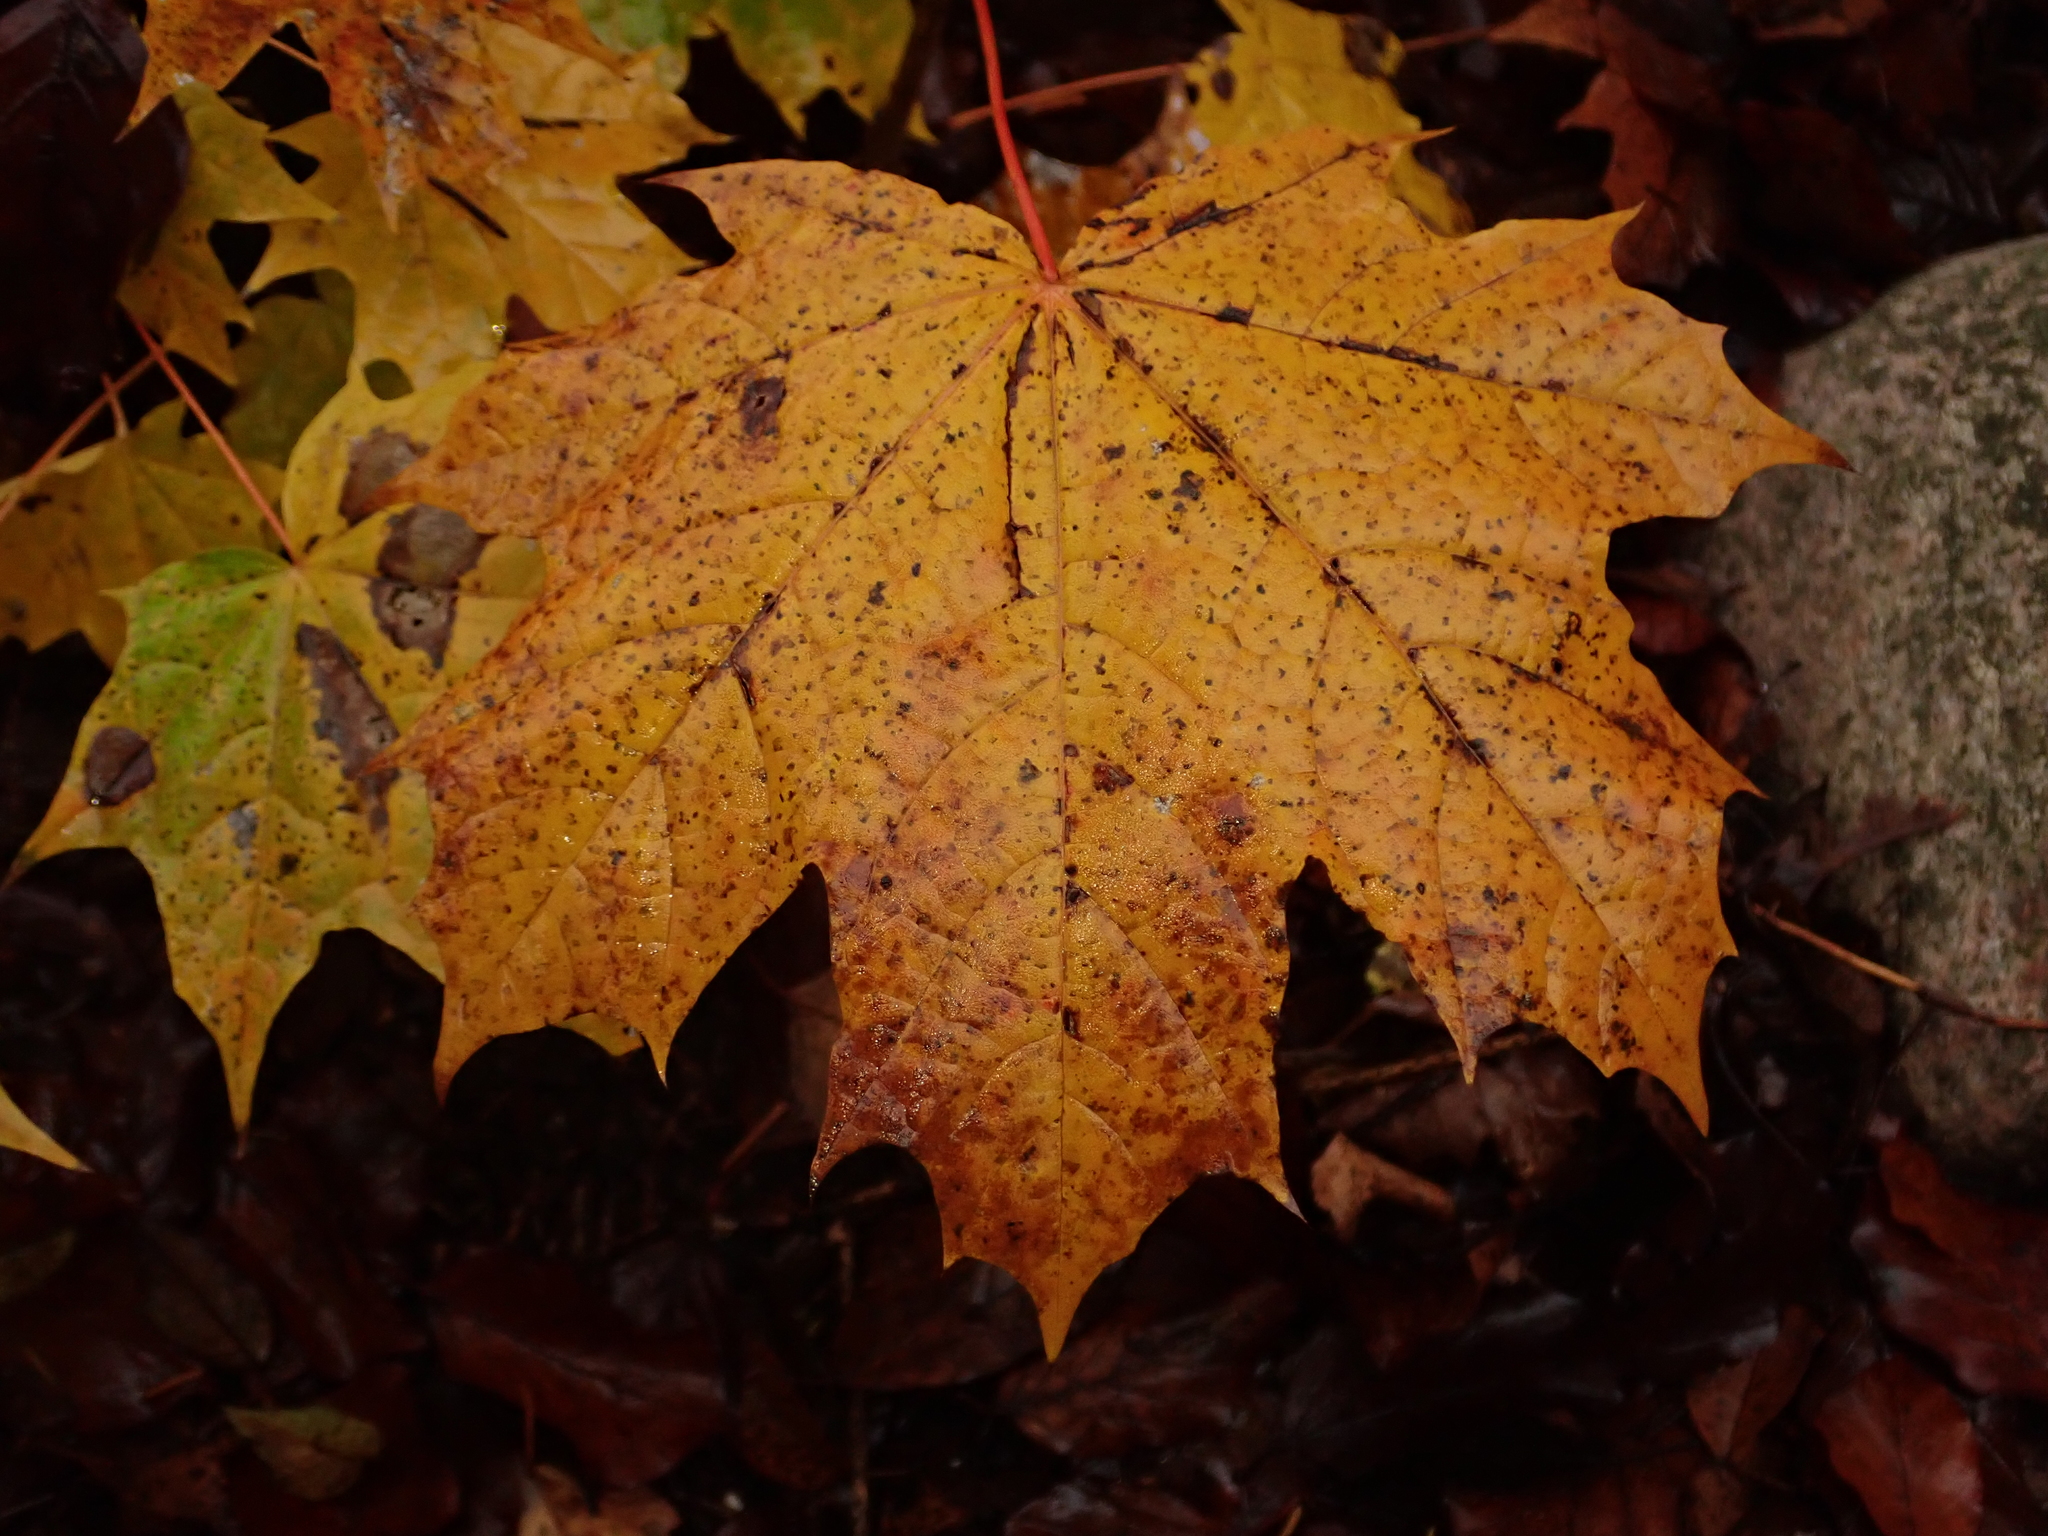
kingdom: Plantae
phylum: Tracheophyta
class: Magnoliopsida
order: Sapindales
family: Sapindaceae
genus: Acer
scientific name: Acer platanoides
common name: Norway maple
